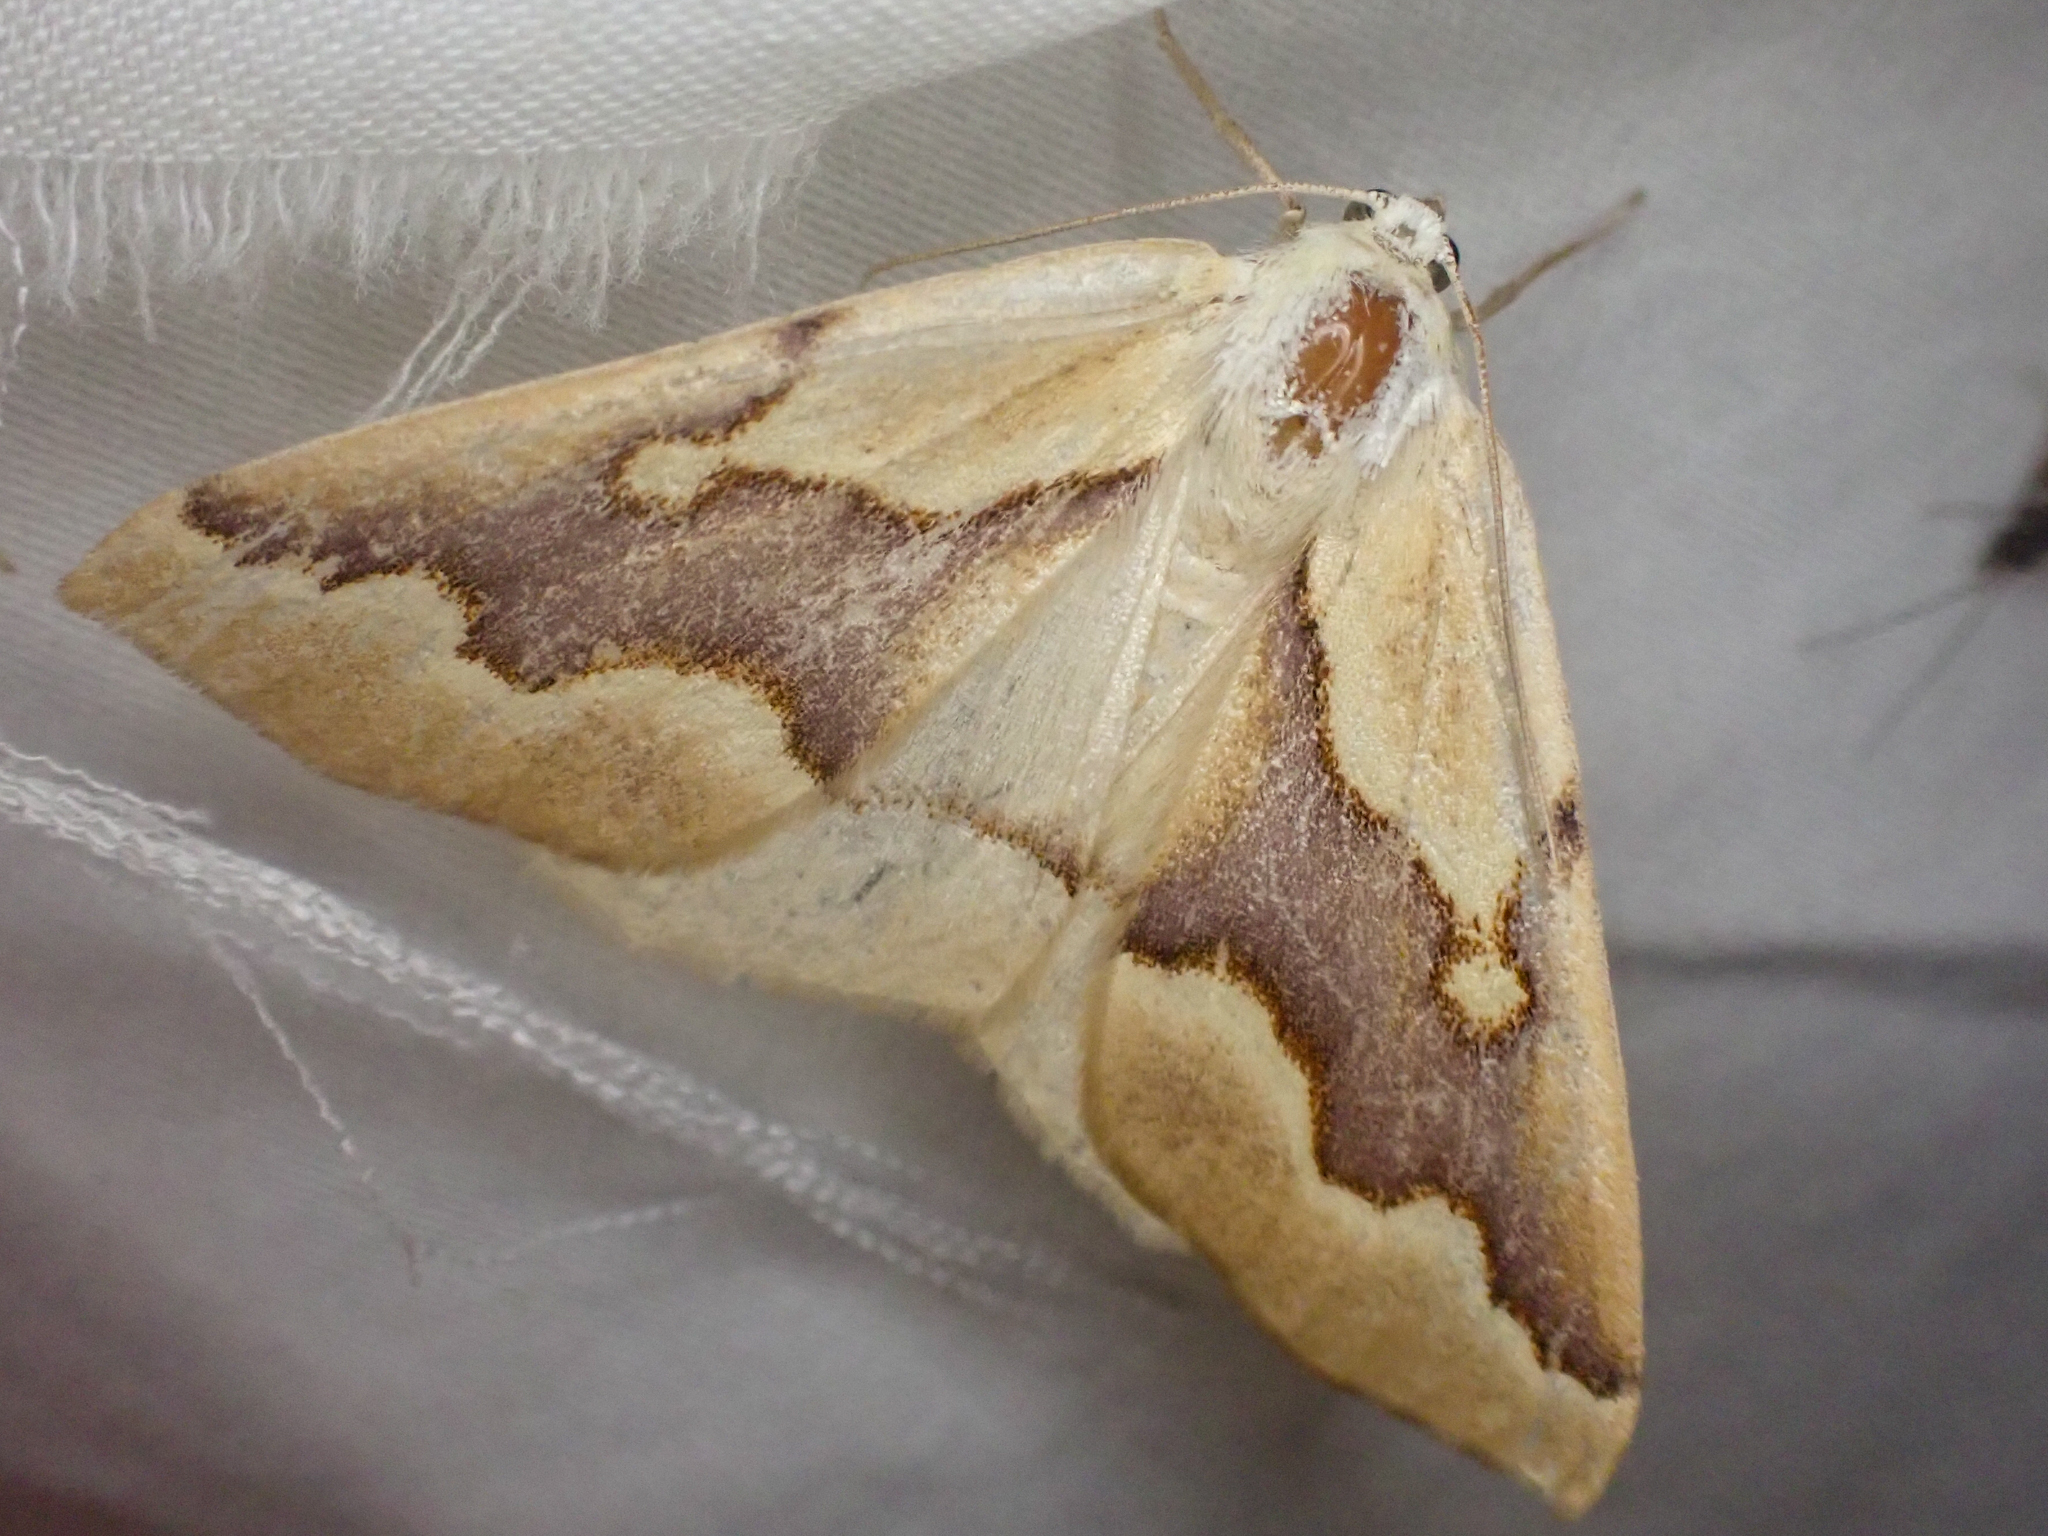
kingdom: Animalia
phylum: Arthropoda
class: Insecta
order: Lepidoptera
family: Geometridae
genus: Sabulodes
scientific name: Sabulodes edwardsata
